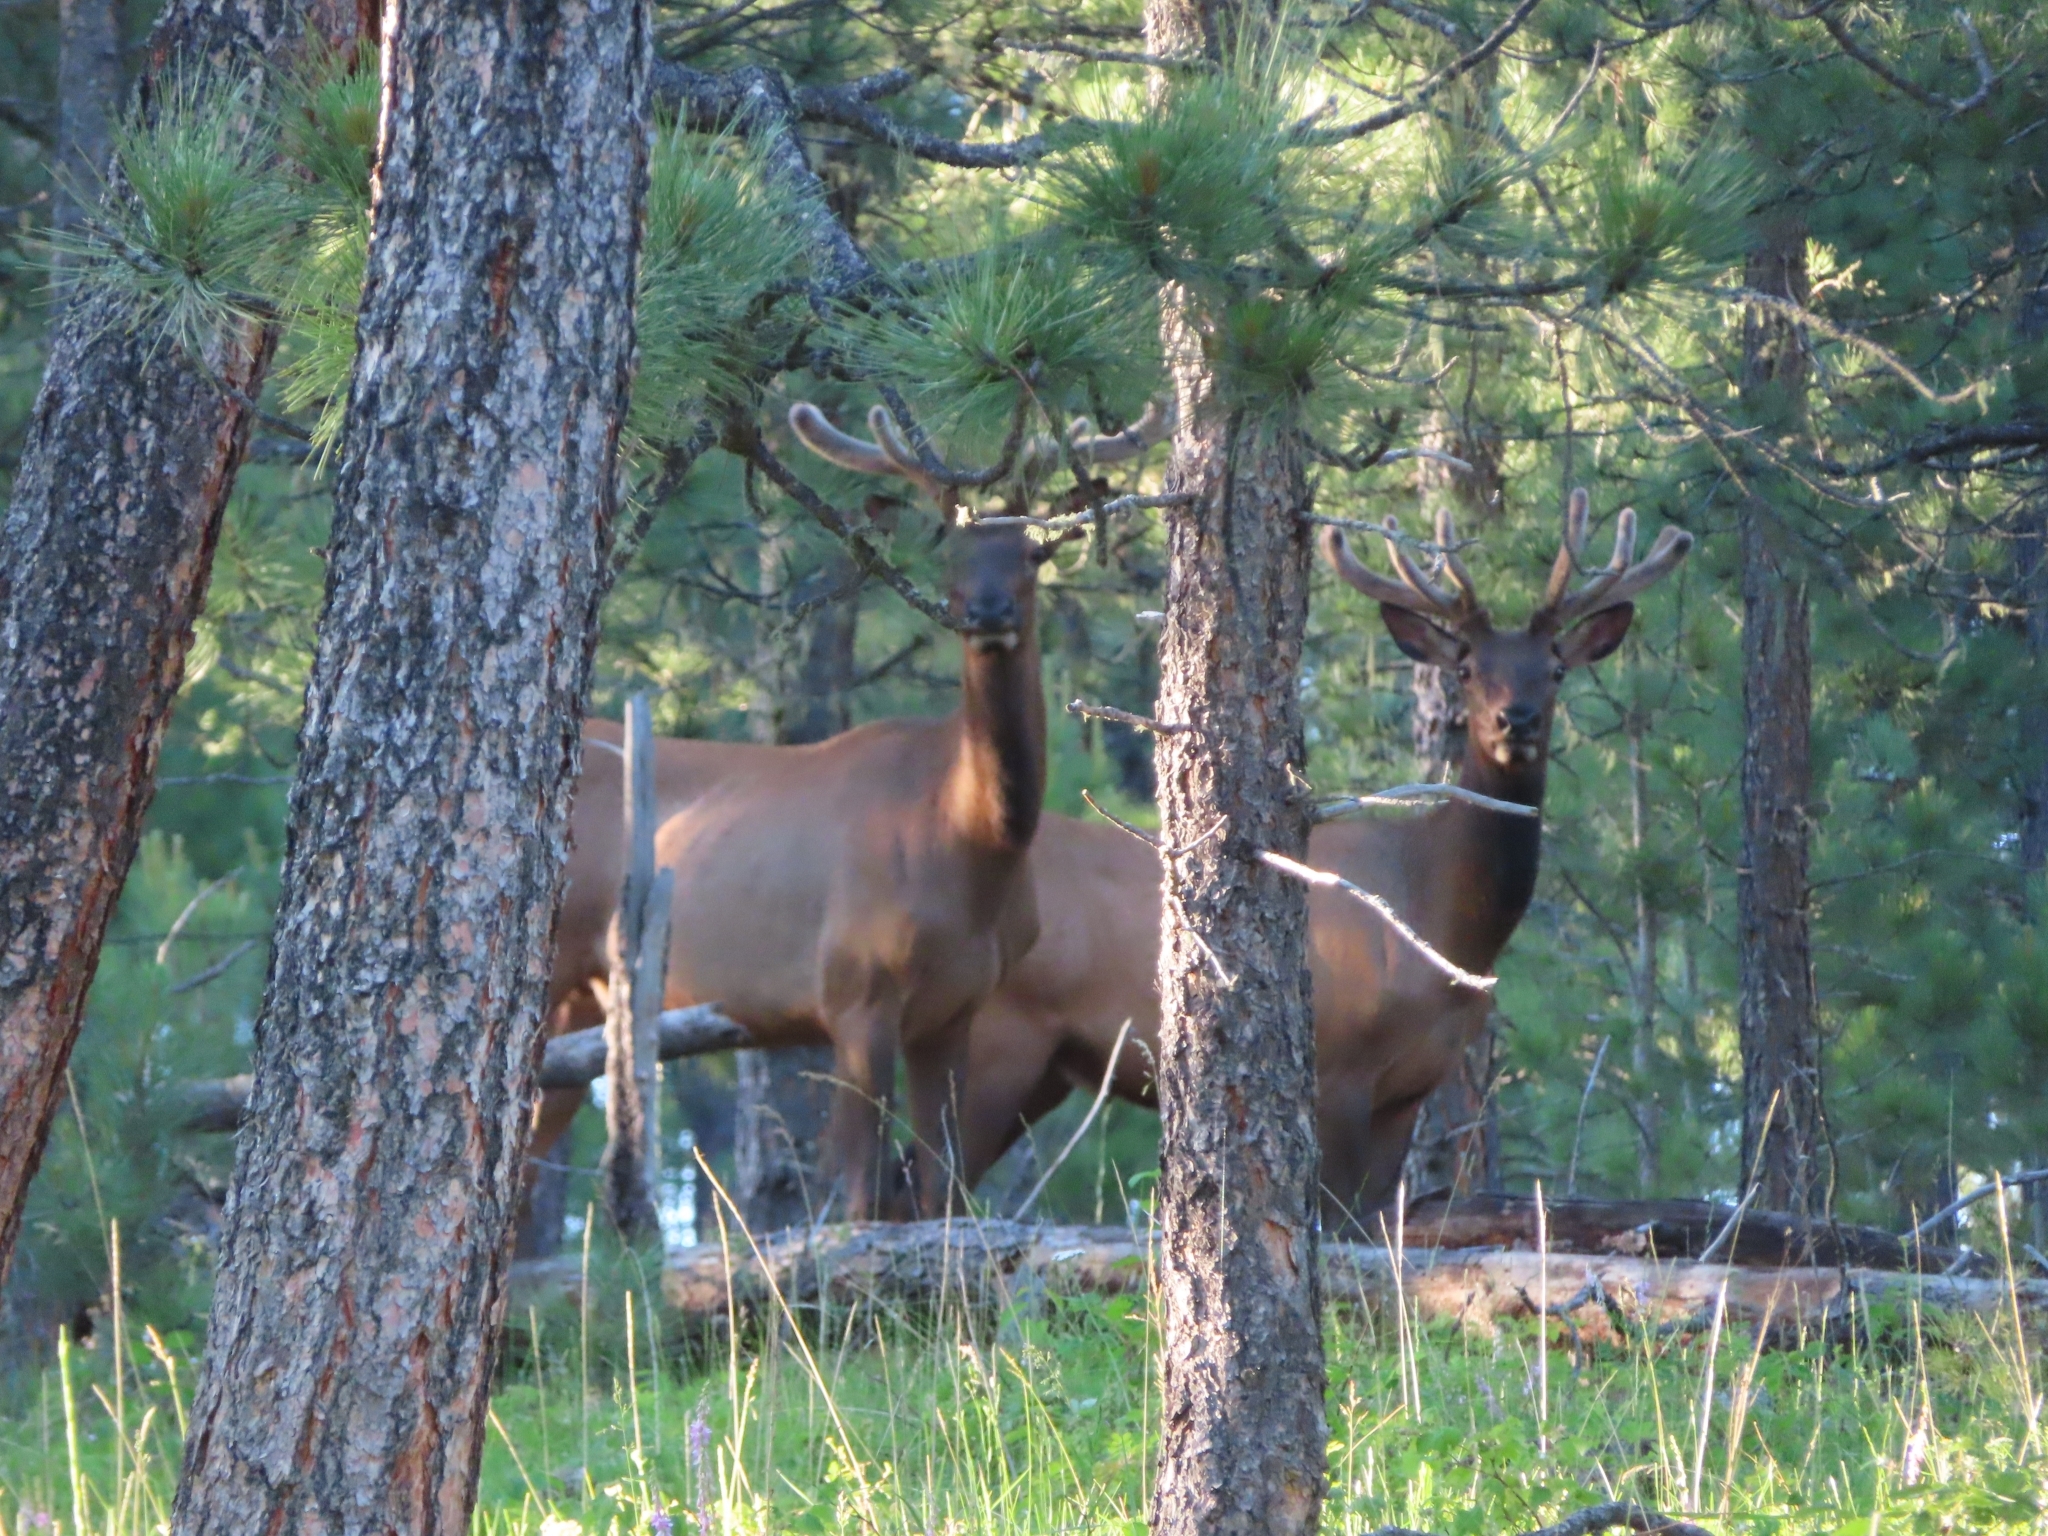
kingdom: Animalia
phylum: Chordata
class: Mammalia
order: Artiodactyla
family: Cervidae
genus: Cervus
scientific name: Cervus elaphus
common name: Red deer
